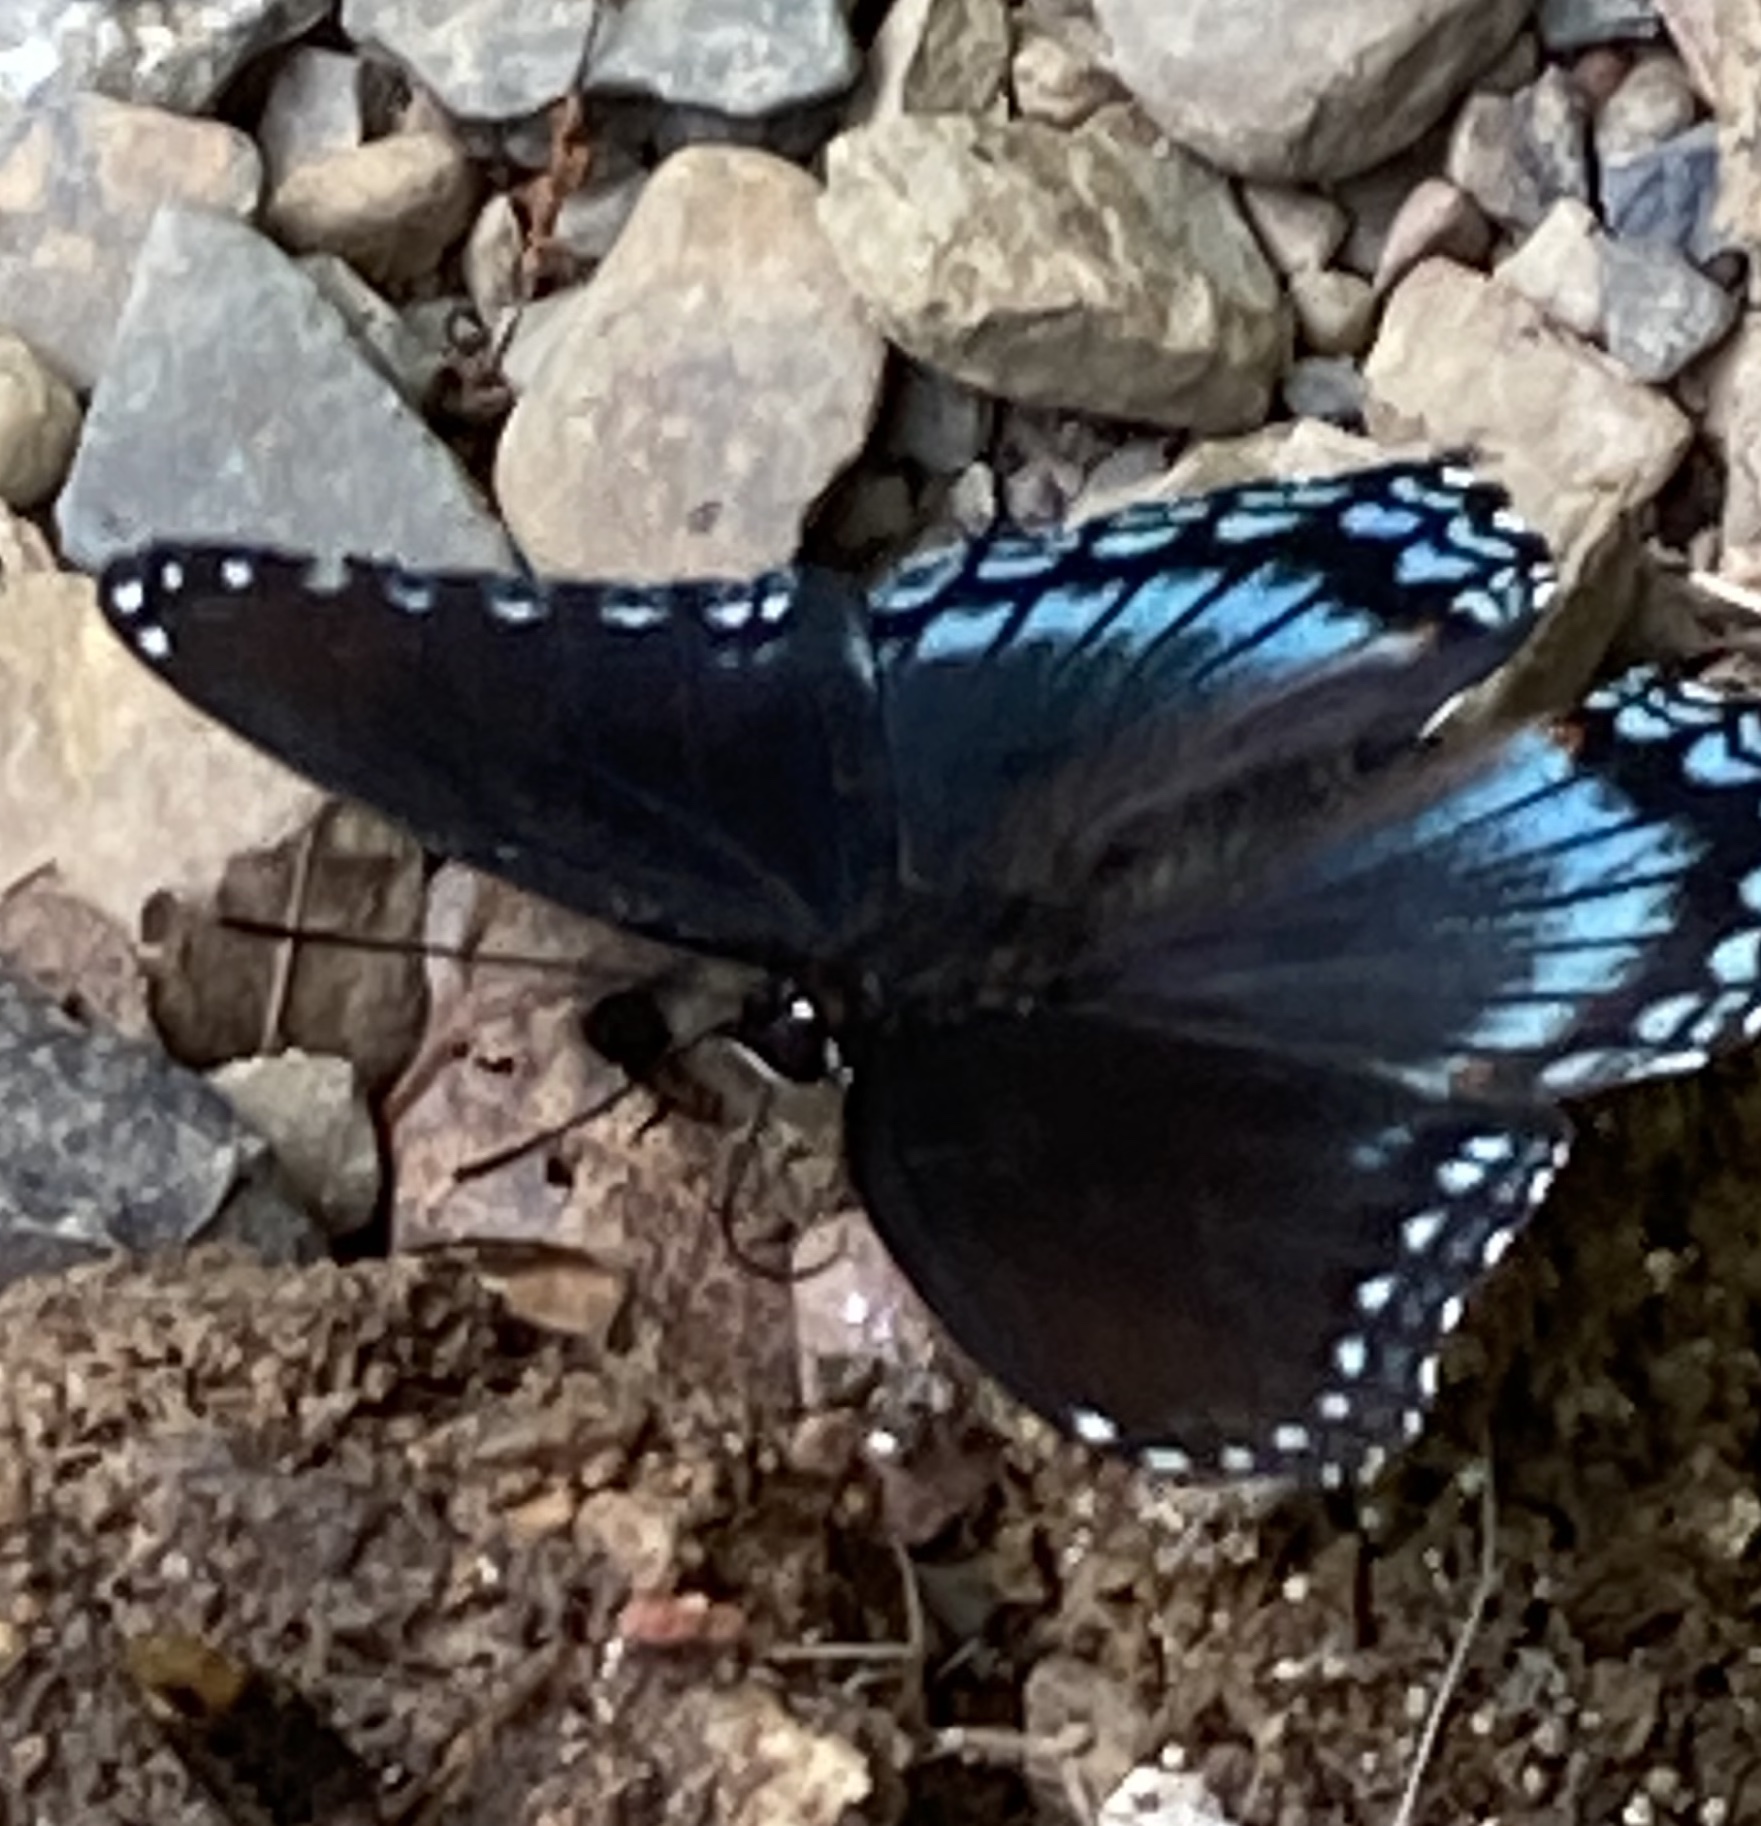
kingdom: Animalia
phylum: Arthropoda
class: Insecta
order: Lepidoptera
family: Nymphalidae
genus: Limenitis
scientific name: Limenitis arthemis
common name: Red-spotted admiral
